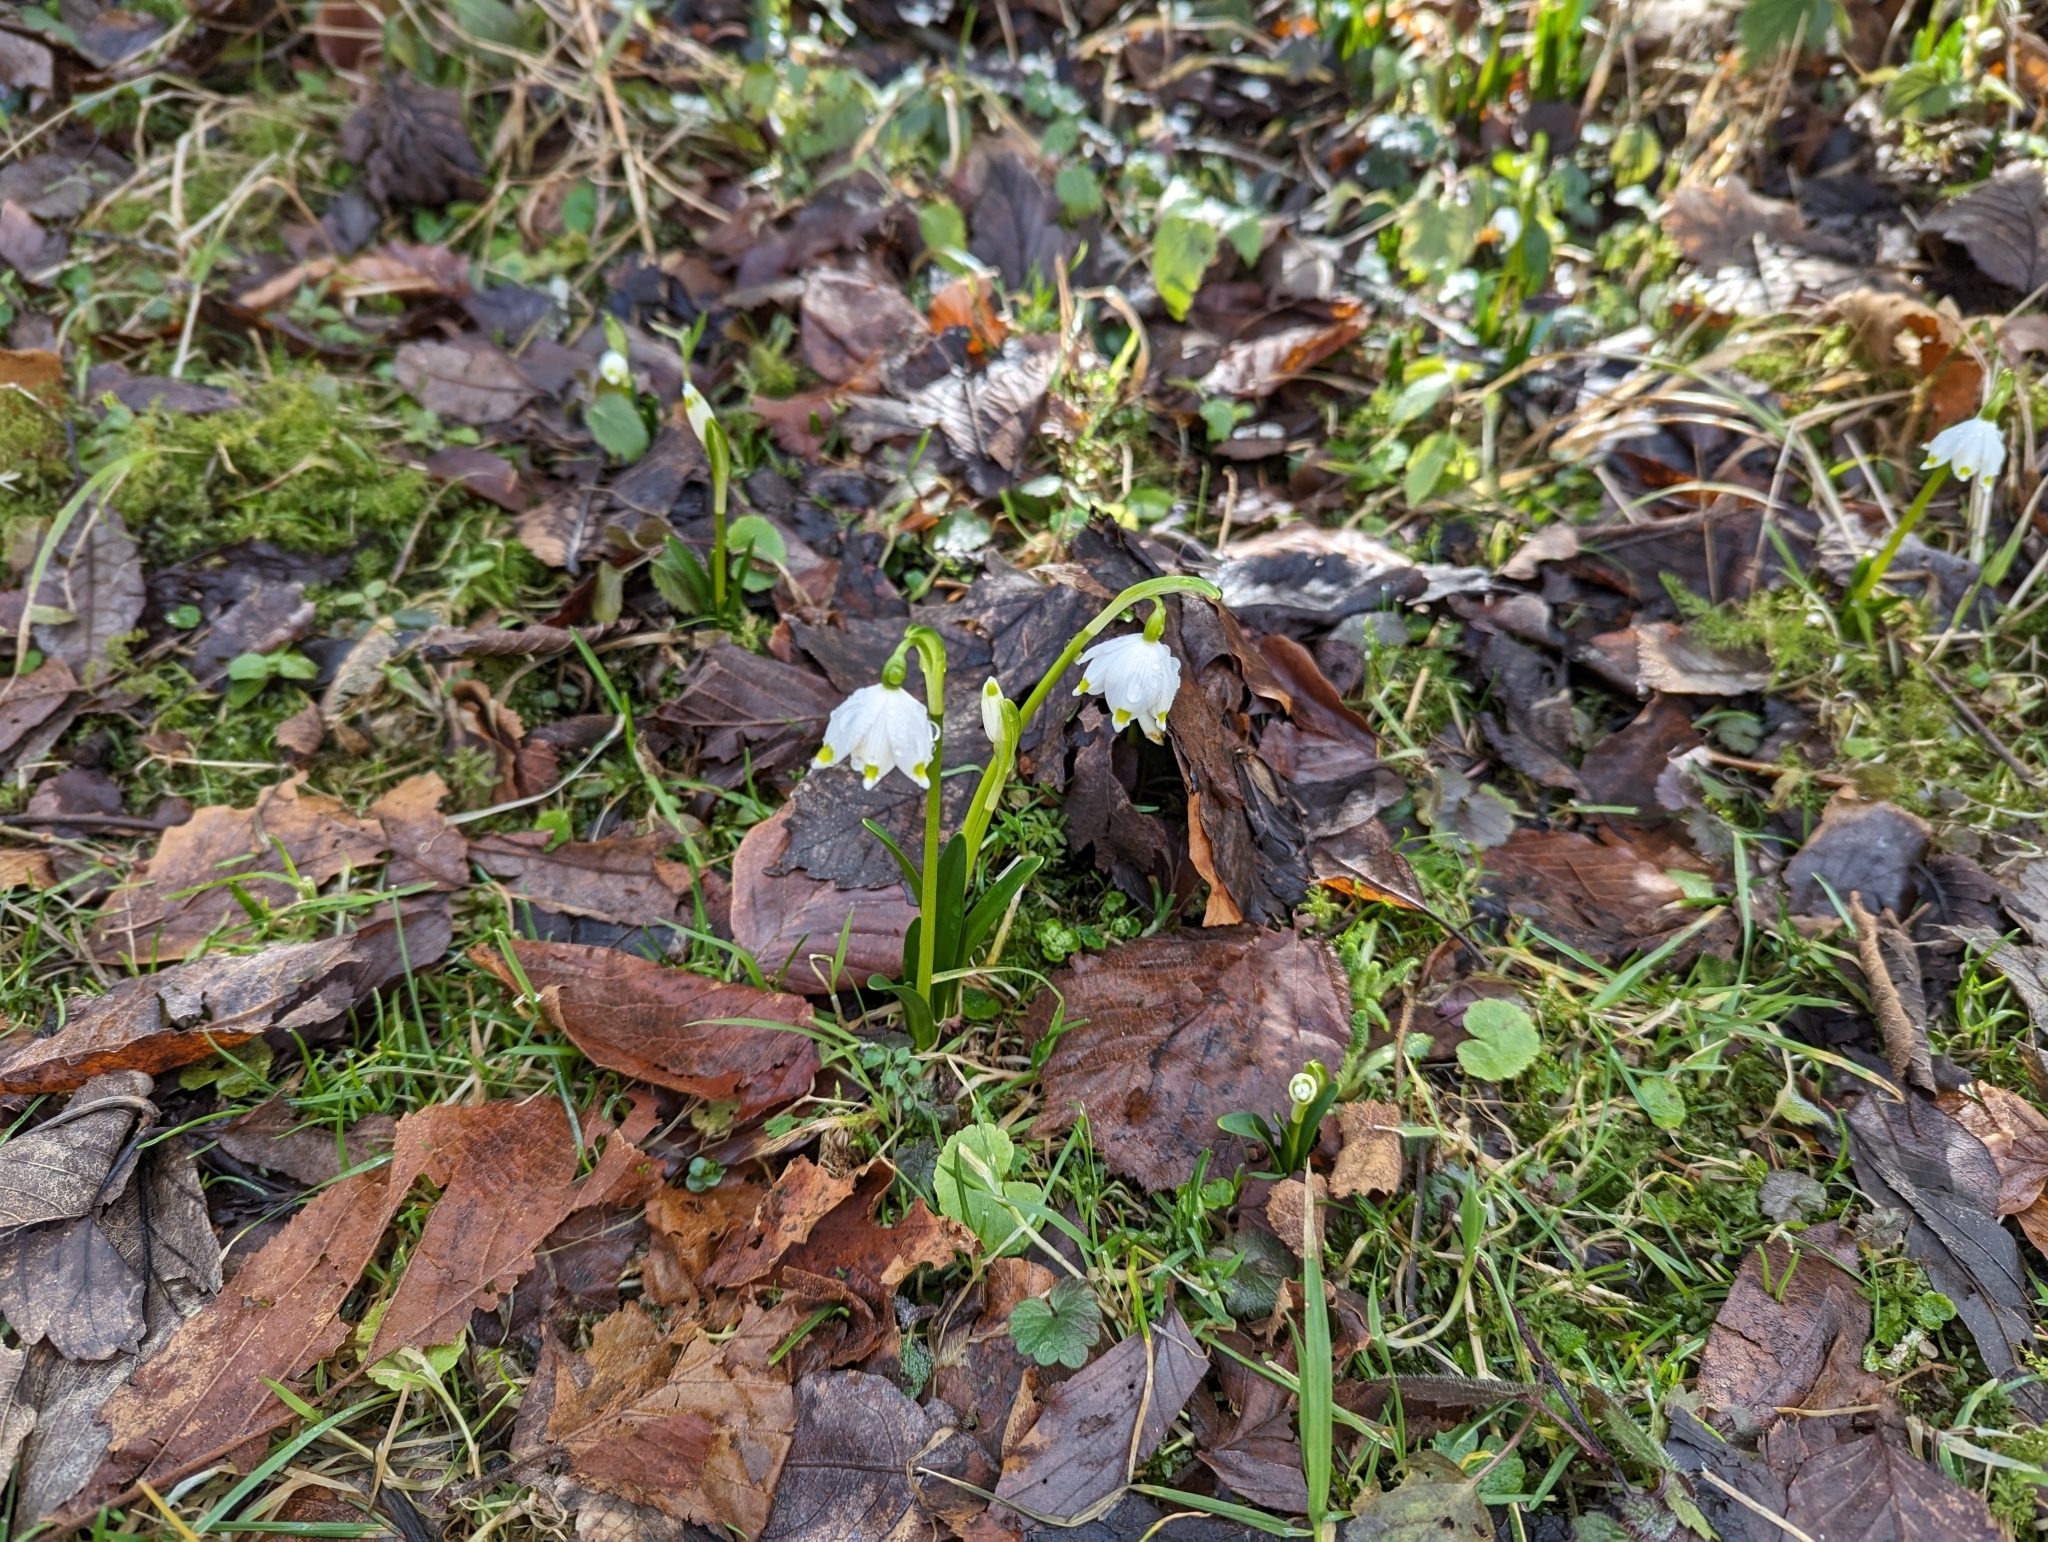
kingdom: Plantae
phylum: Tracheophyta
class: Liliopsida
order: Asparagales
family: Amaryllidaceae
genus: Leucojum
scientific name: Leucojum vernum
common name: Spring snowflake
